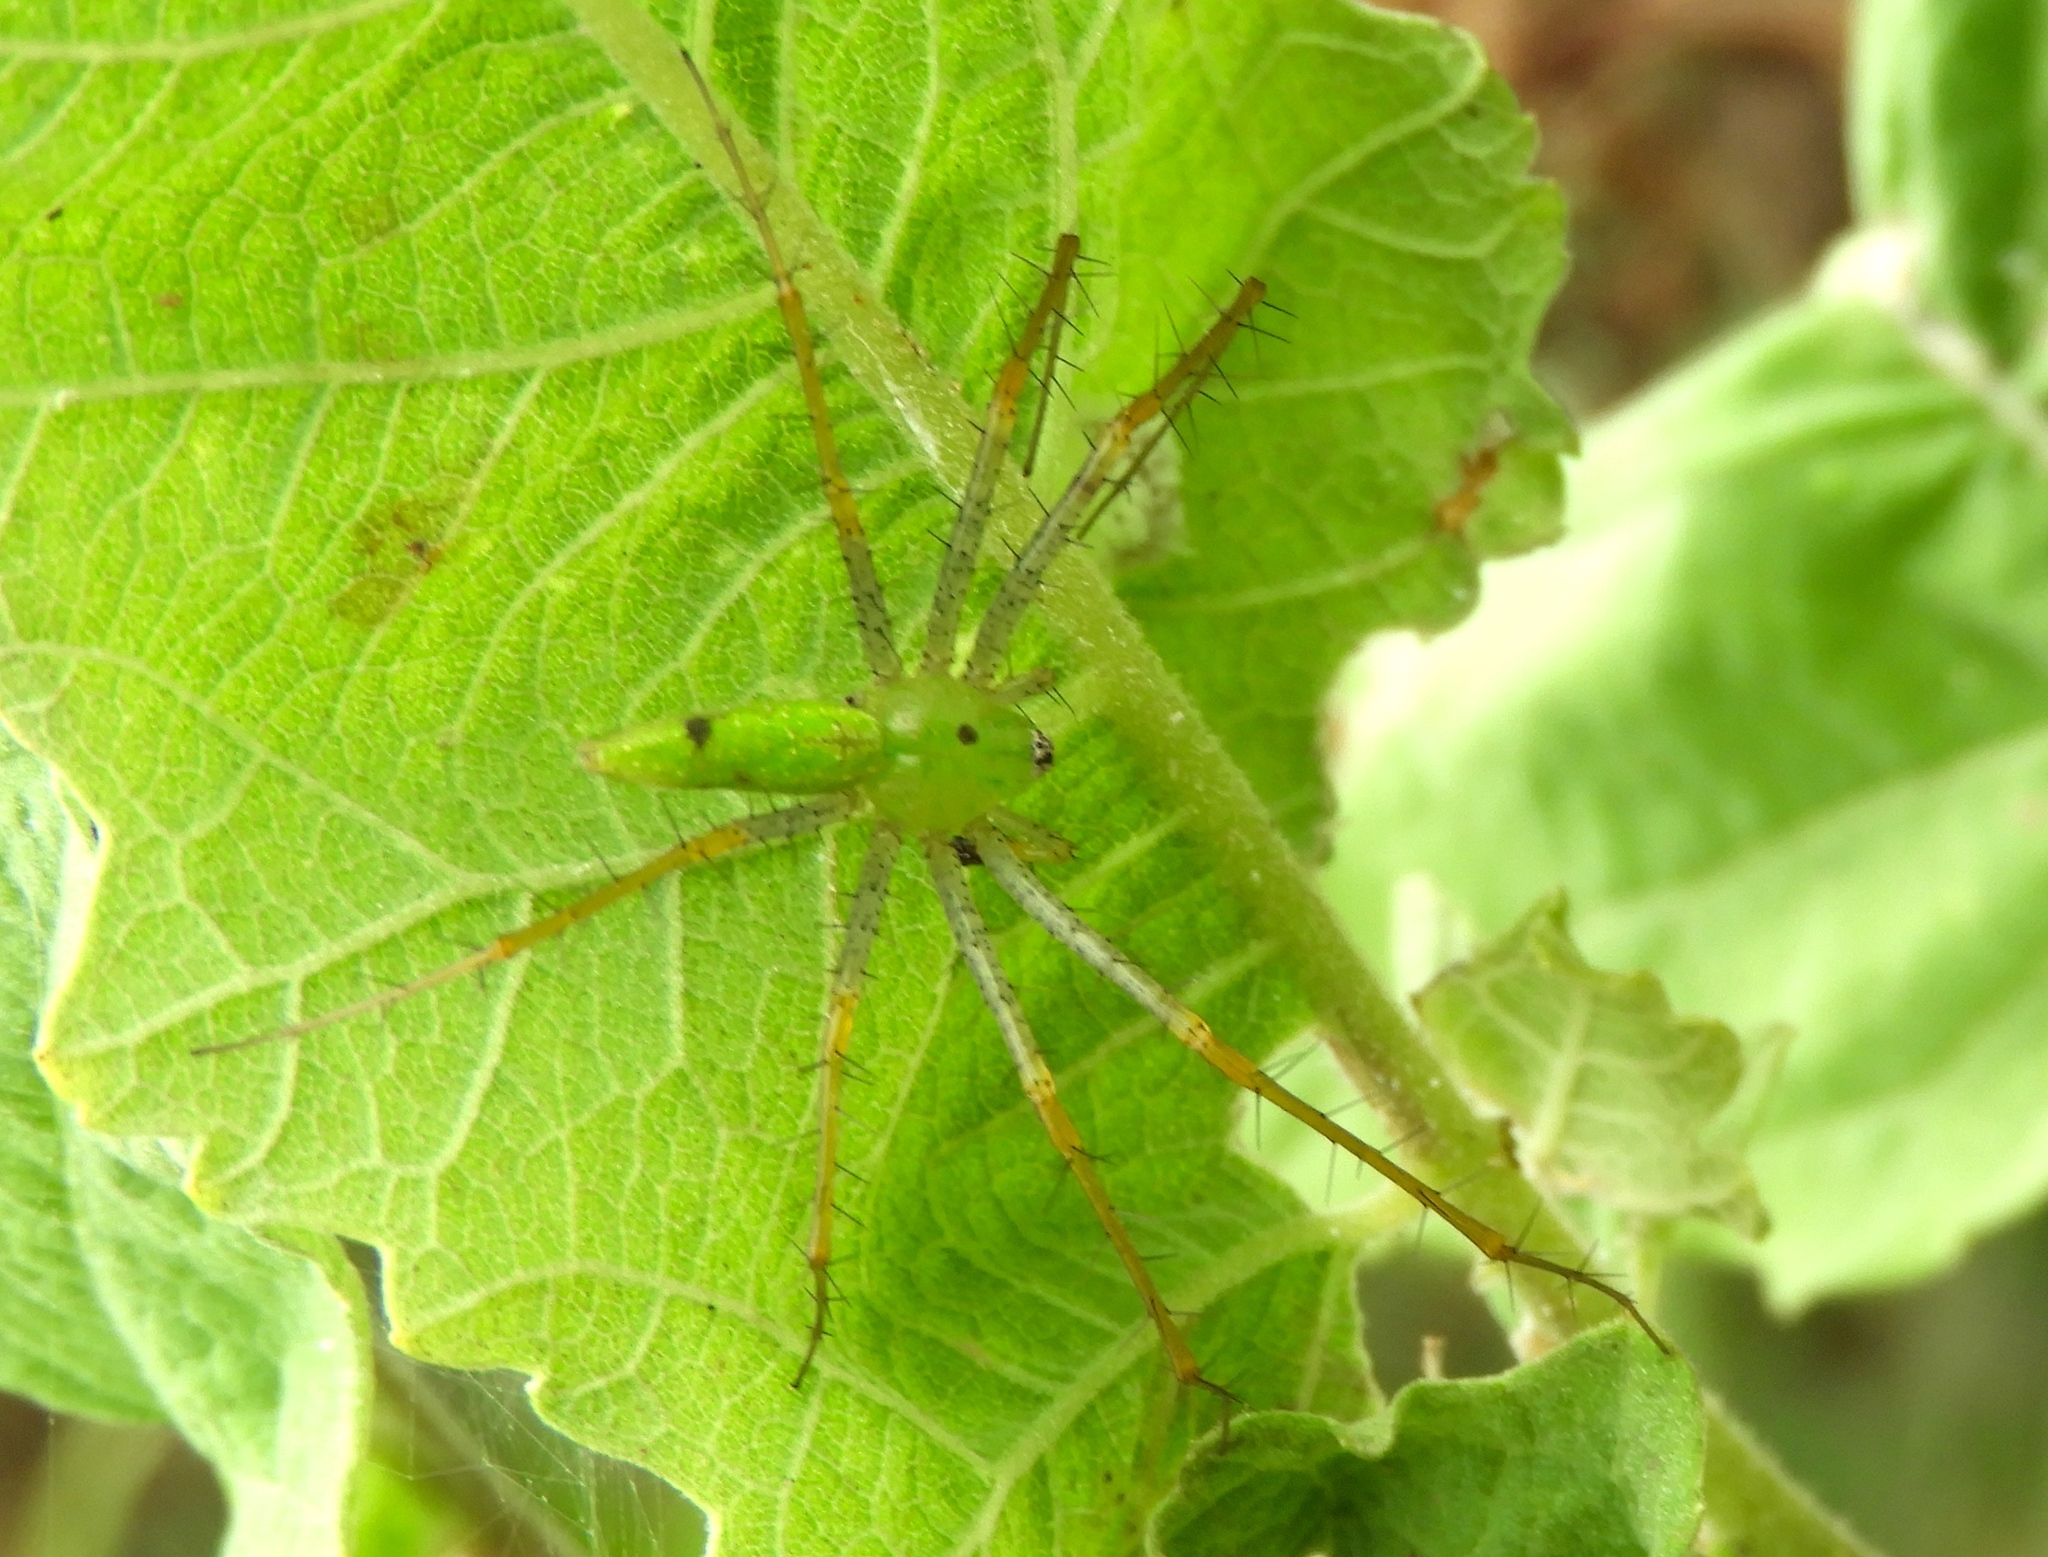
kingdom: Animalia
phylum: Arthropoda
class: Arachnida
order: Araneae
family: Oxyopidae
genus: Peucetia
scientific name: Peucetia
